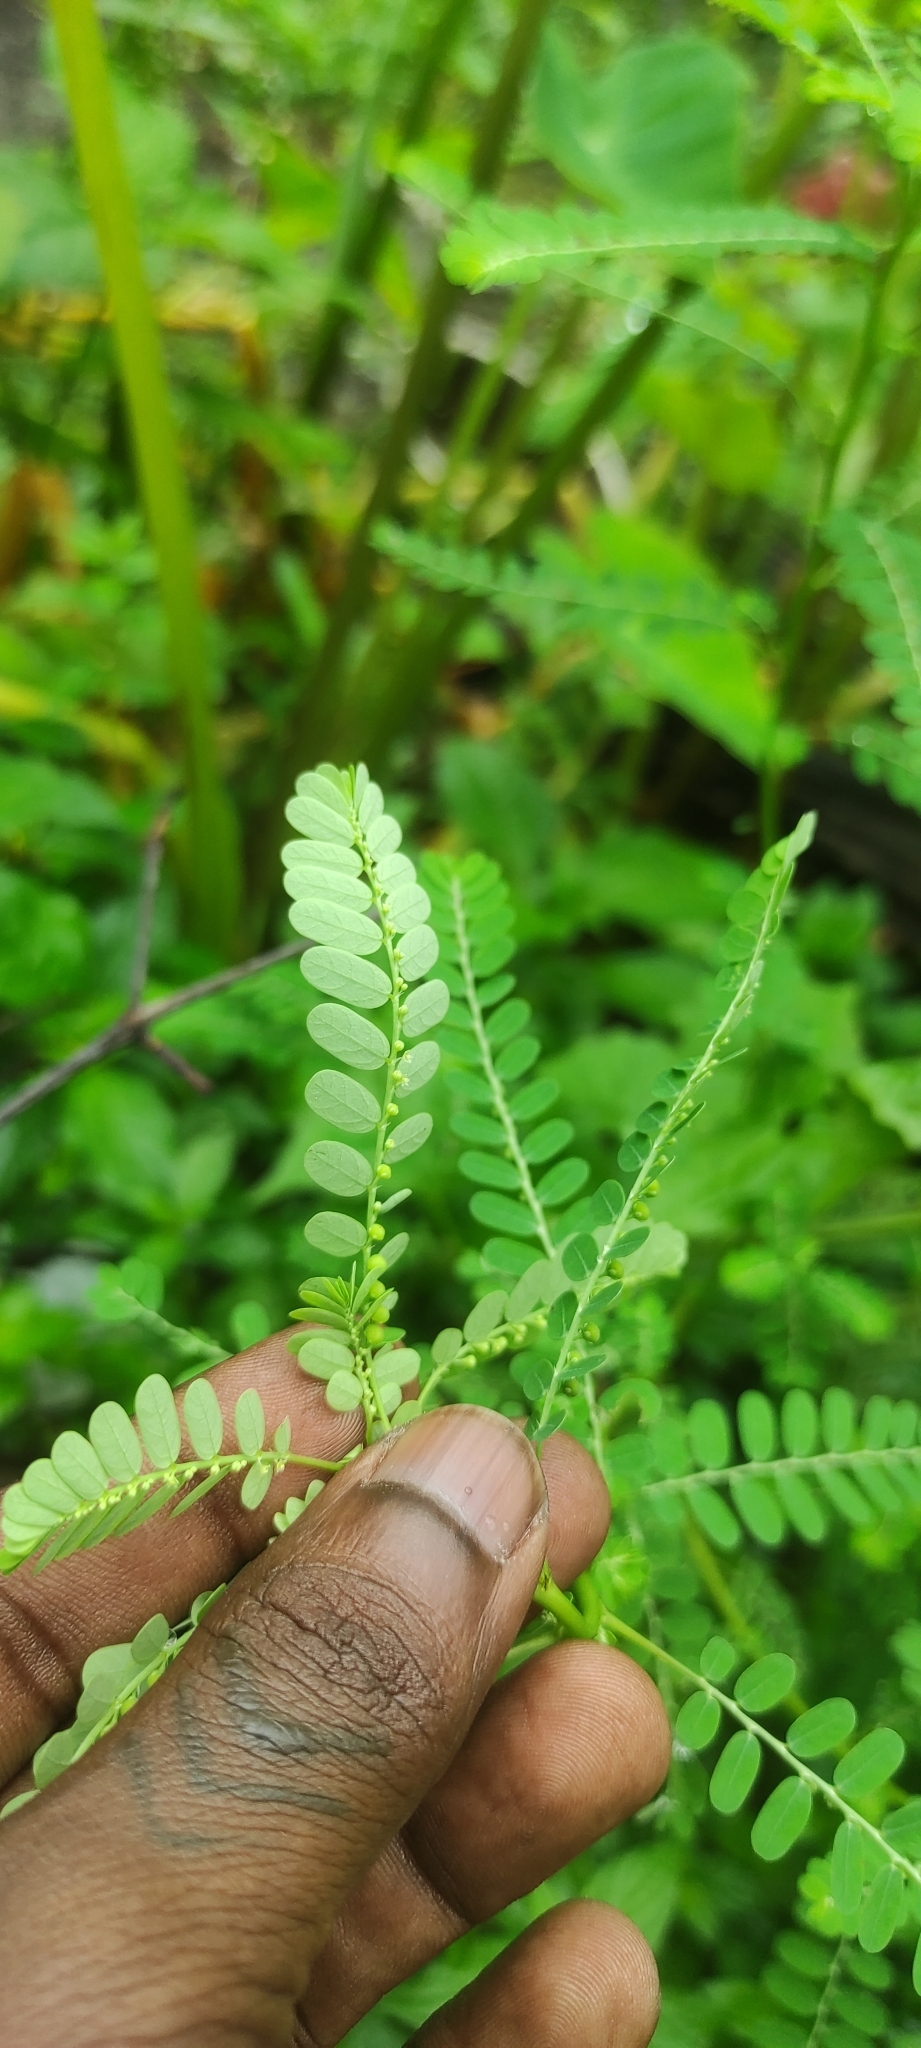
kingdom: Plantae
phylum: Tracheophyta
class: Magnoliopsida
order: Malpighiales
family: Phyllanthaceae
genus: Phyllanthus
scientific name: Phyllanthus amarus
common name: Carry me seed
